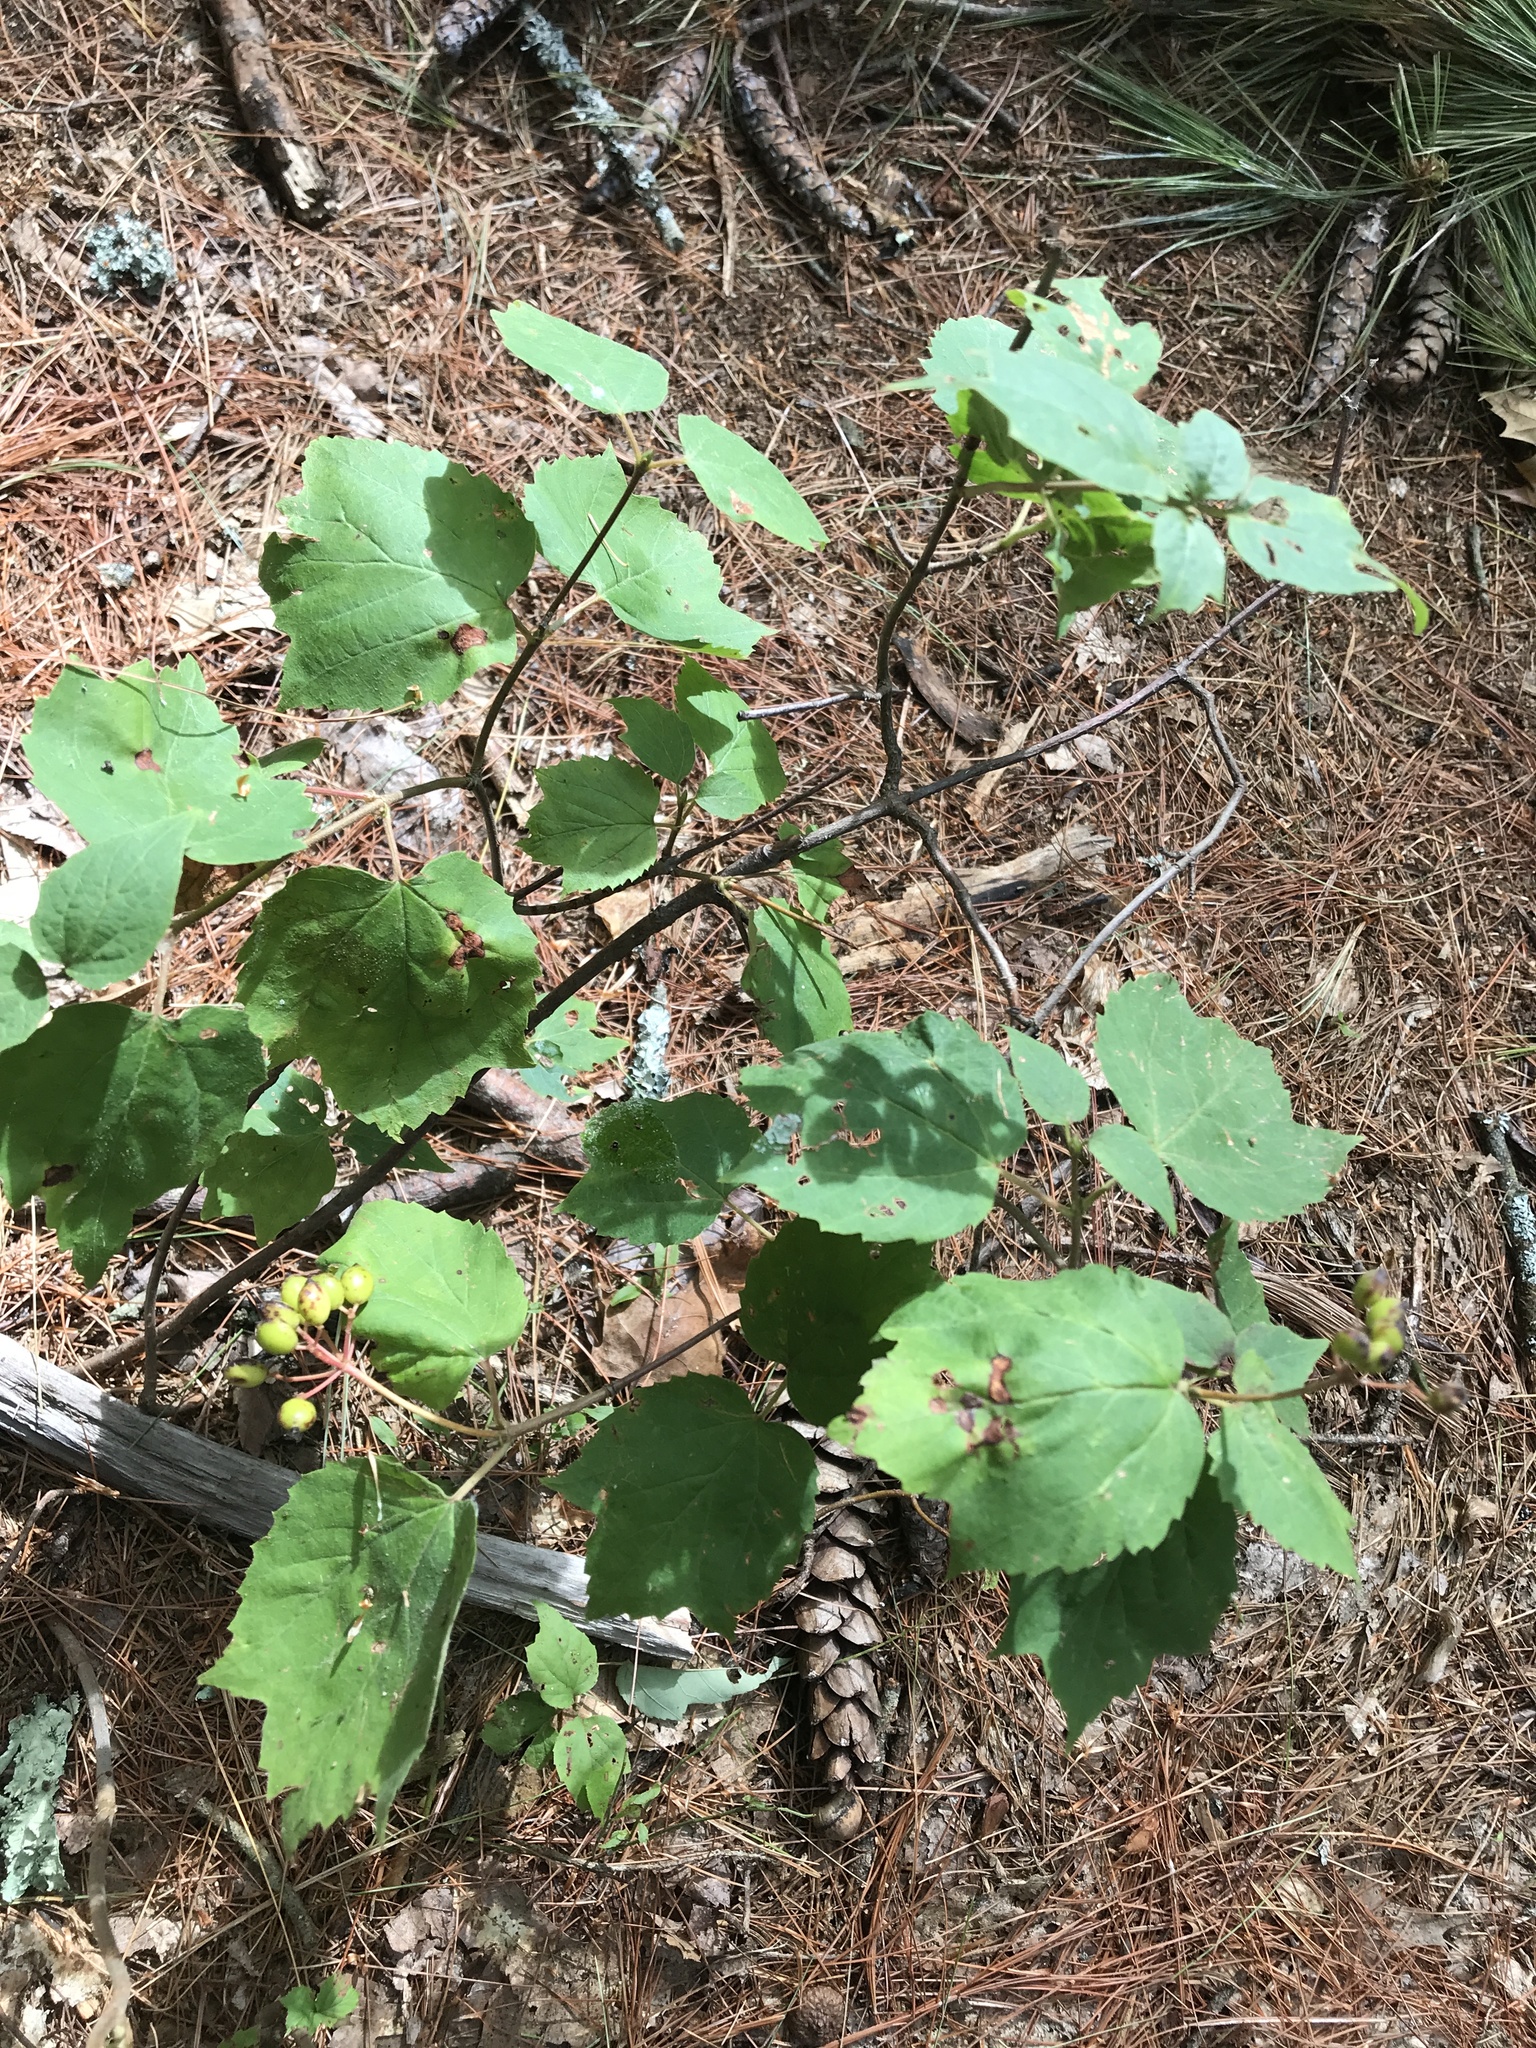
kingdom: Plantae
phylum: Tracheophyta
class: Magnoliopsida
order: Dipsacales
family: Viburnaceae
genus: Viburnum
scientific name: Viburnum acerifolium
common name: Dockmackie
